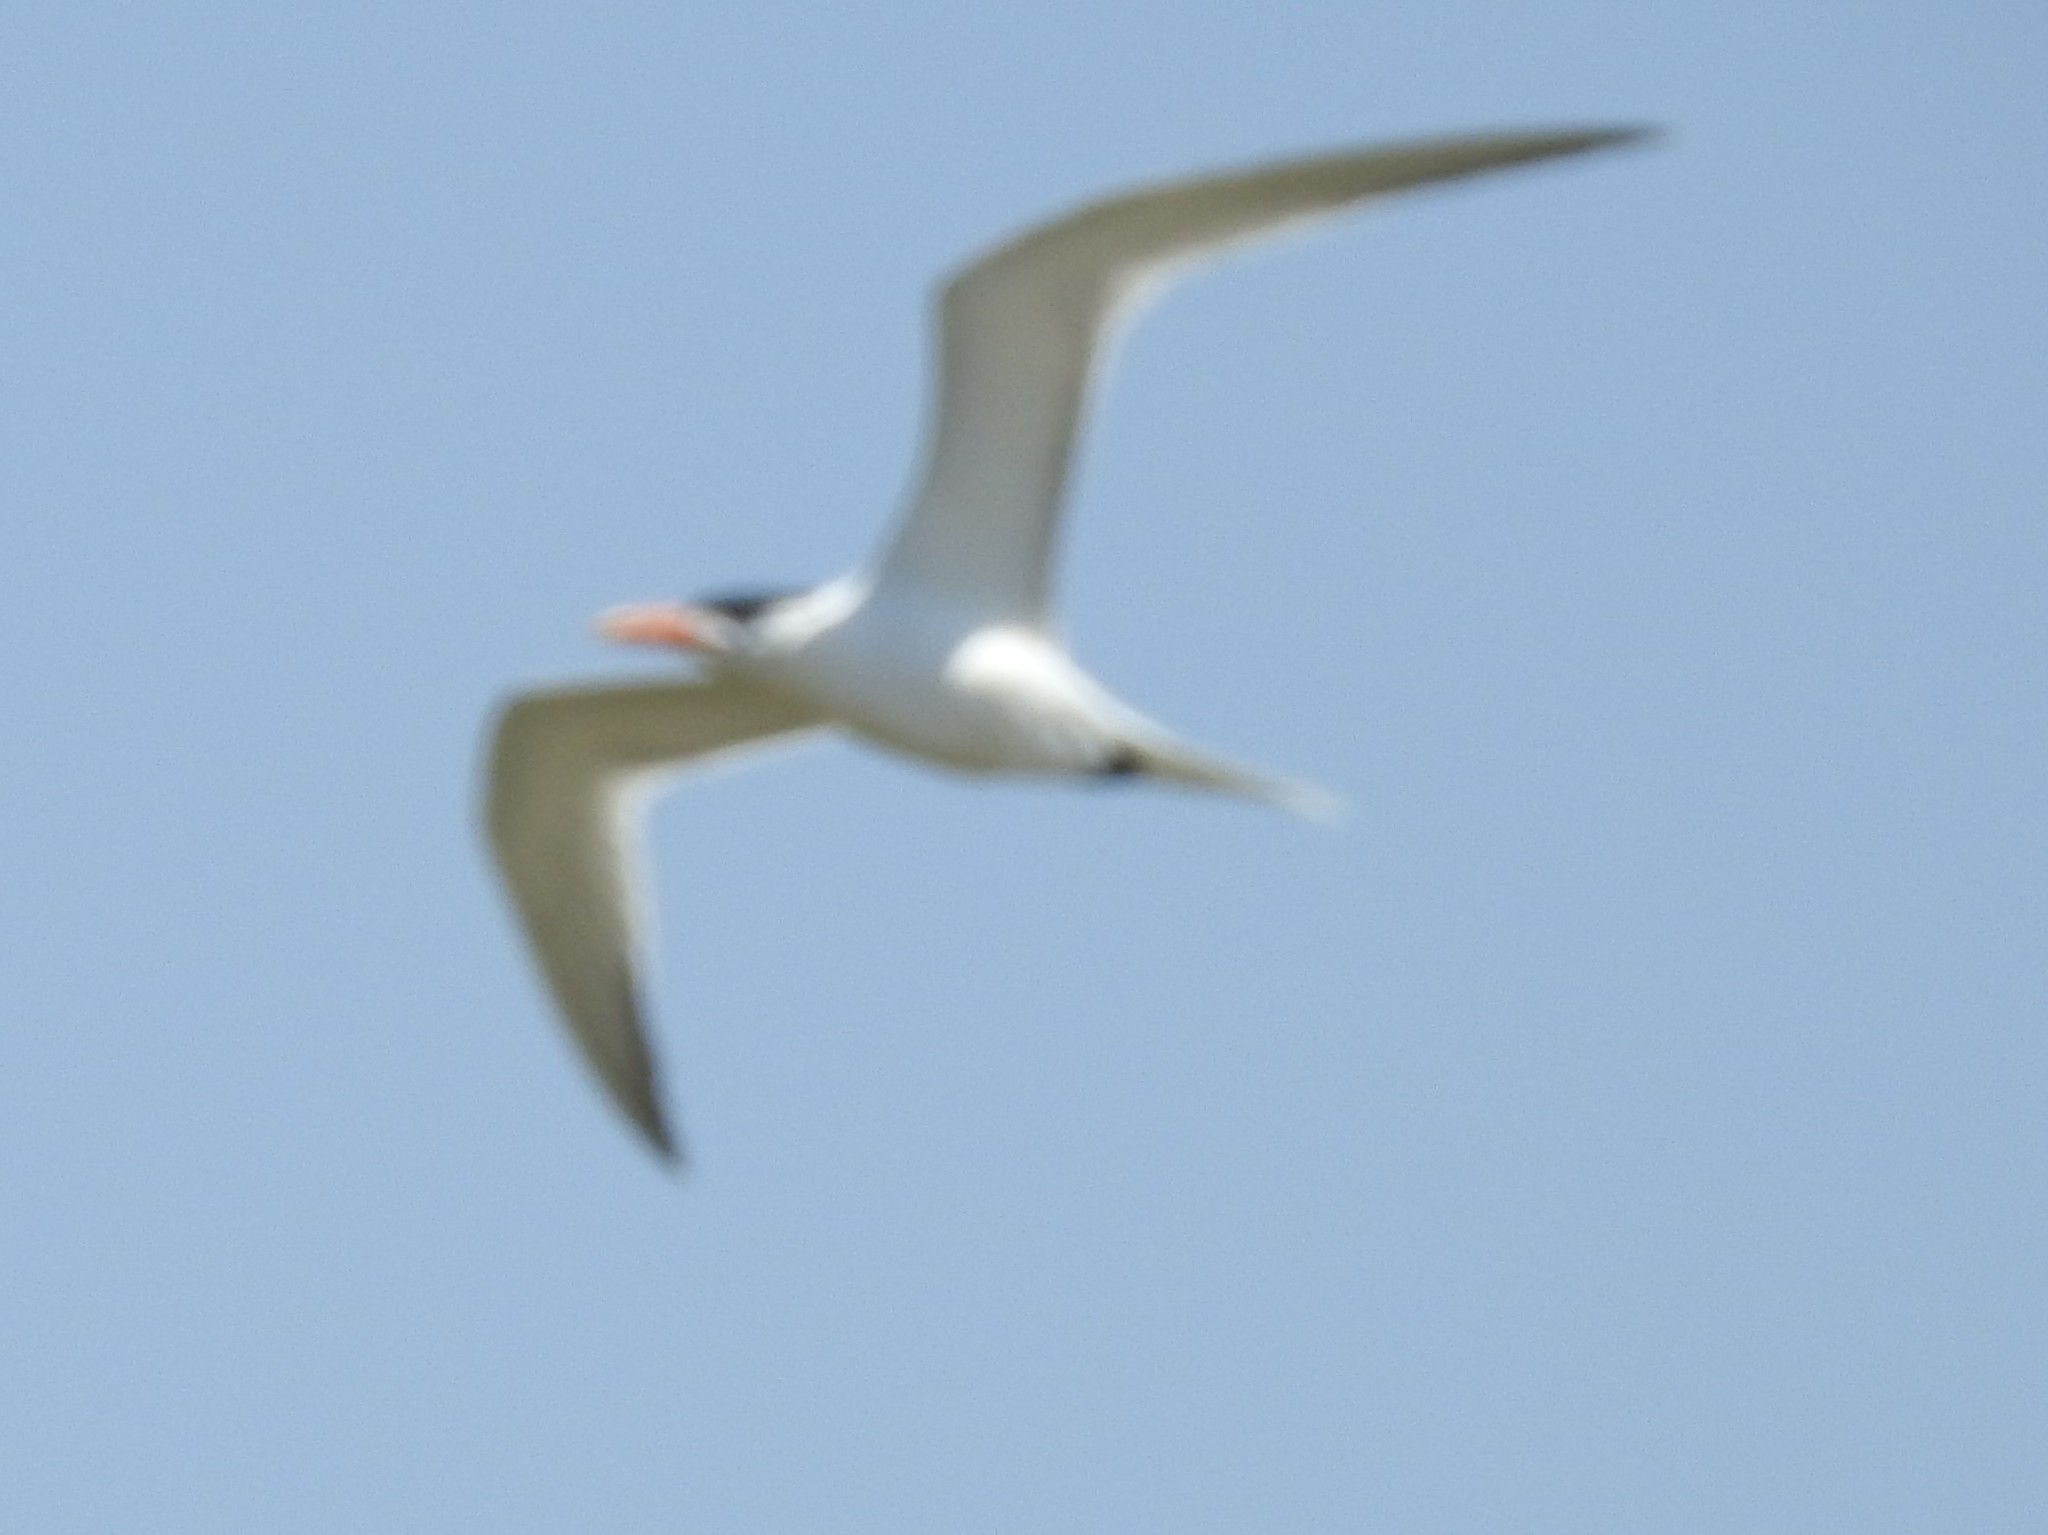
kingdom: Animalia
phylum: Chordata
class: Aves
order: Charadriiformes
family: Laridae
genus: Thalasseus
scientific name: Thalasseus maximus
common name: Royal tern
